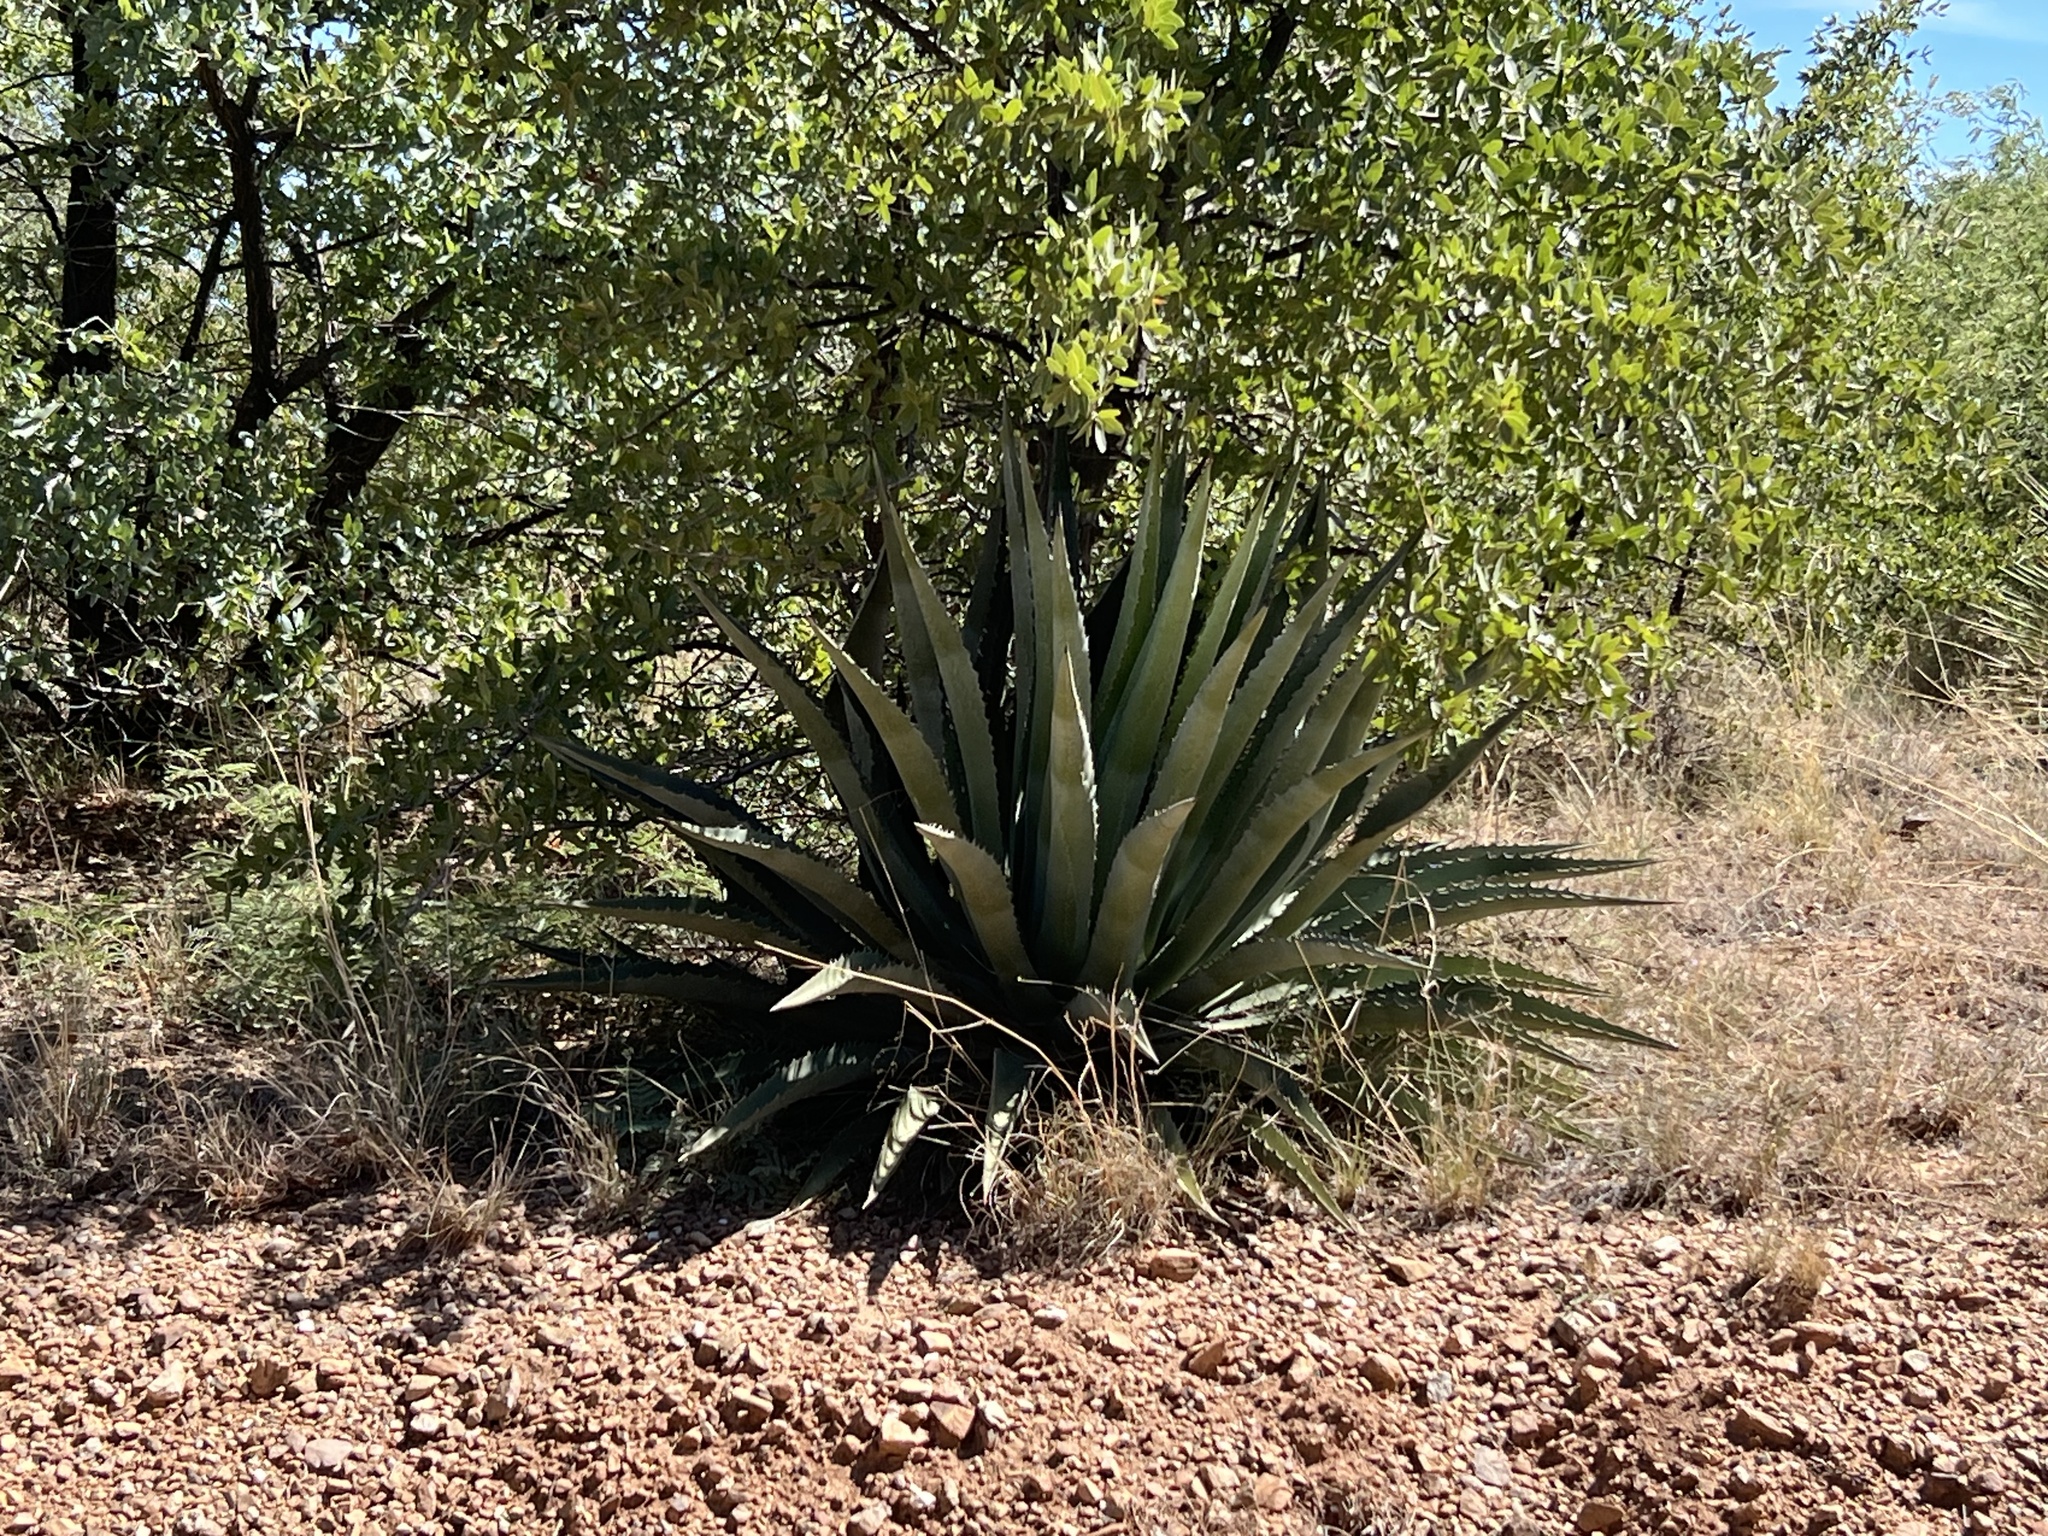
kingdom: Plantae
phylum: Tracheophyta
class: Liliopsida
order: Asparagales
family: Asparagaceae
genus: Agave
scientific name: Agave palmeri
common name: Palmer agave
